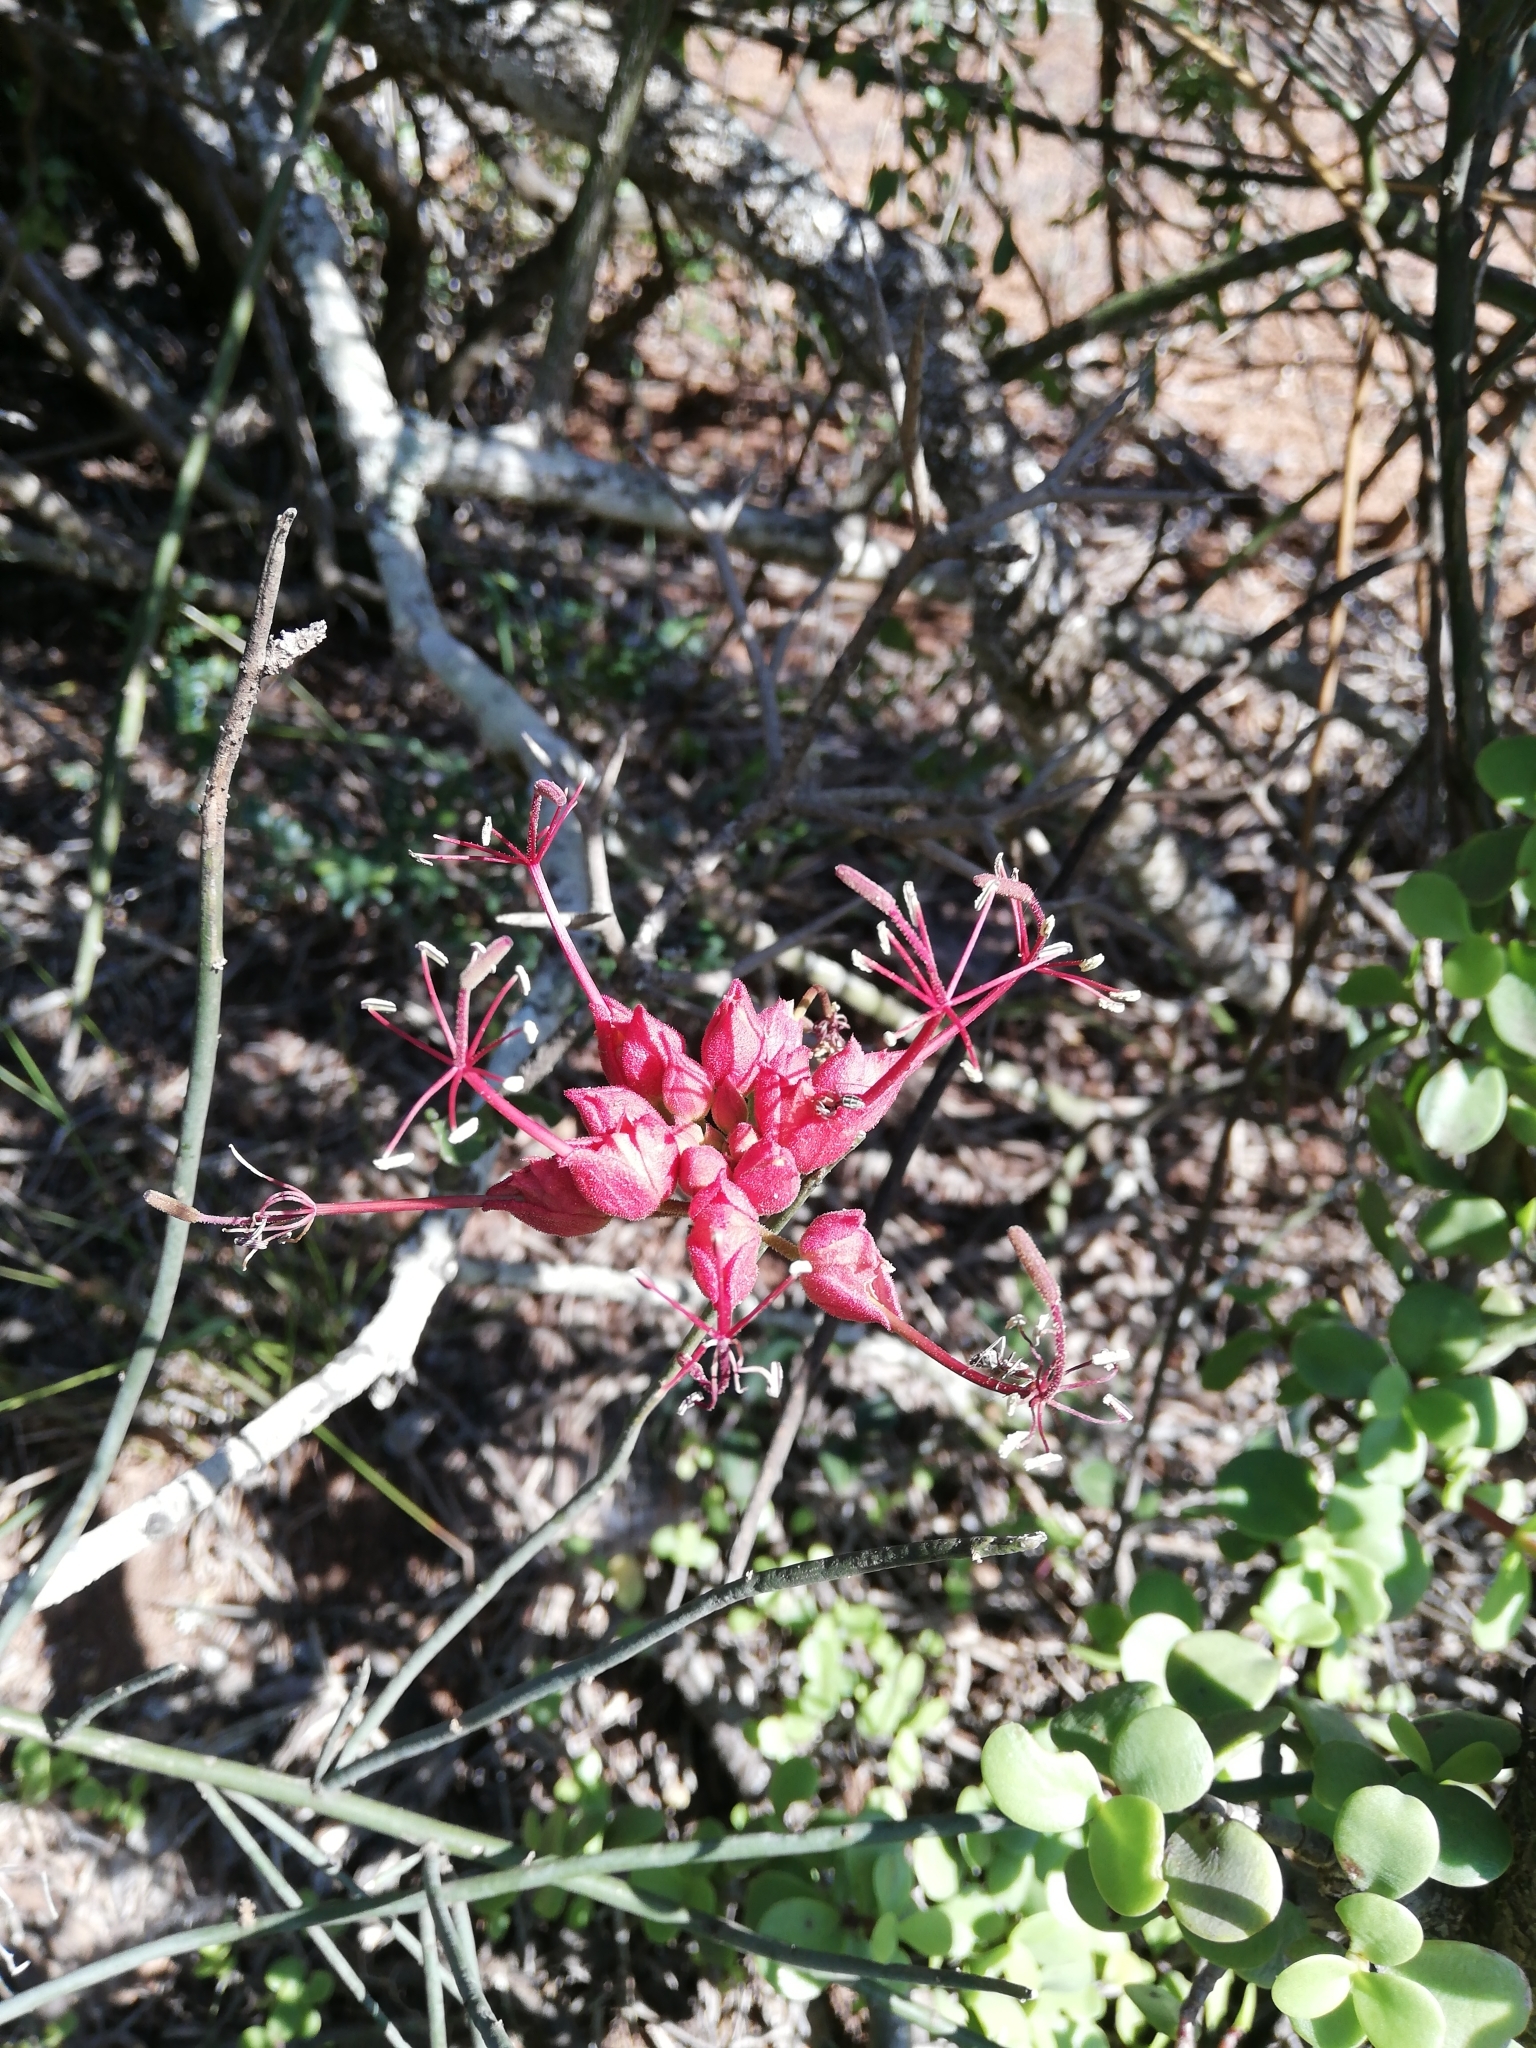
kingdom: Plantae
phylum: Tracheophyta
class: Magnoliopsida
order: Brassicales
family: Capparaceae
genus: Cadaba
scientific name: Cadaba aphylla
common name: Black storm
